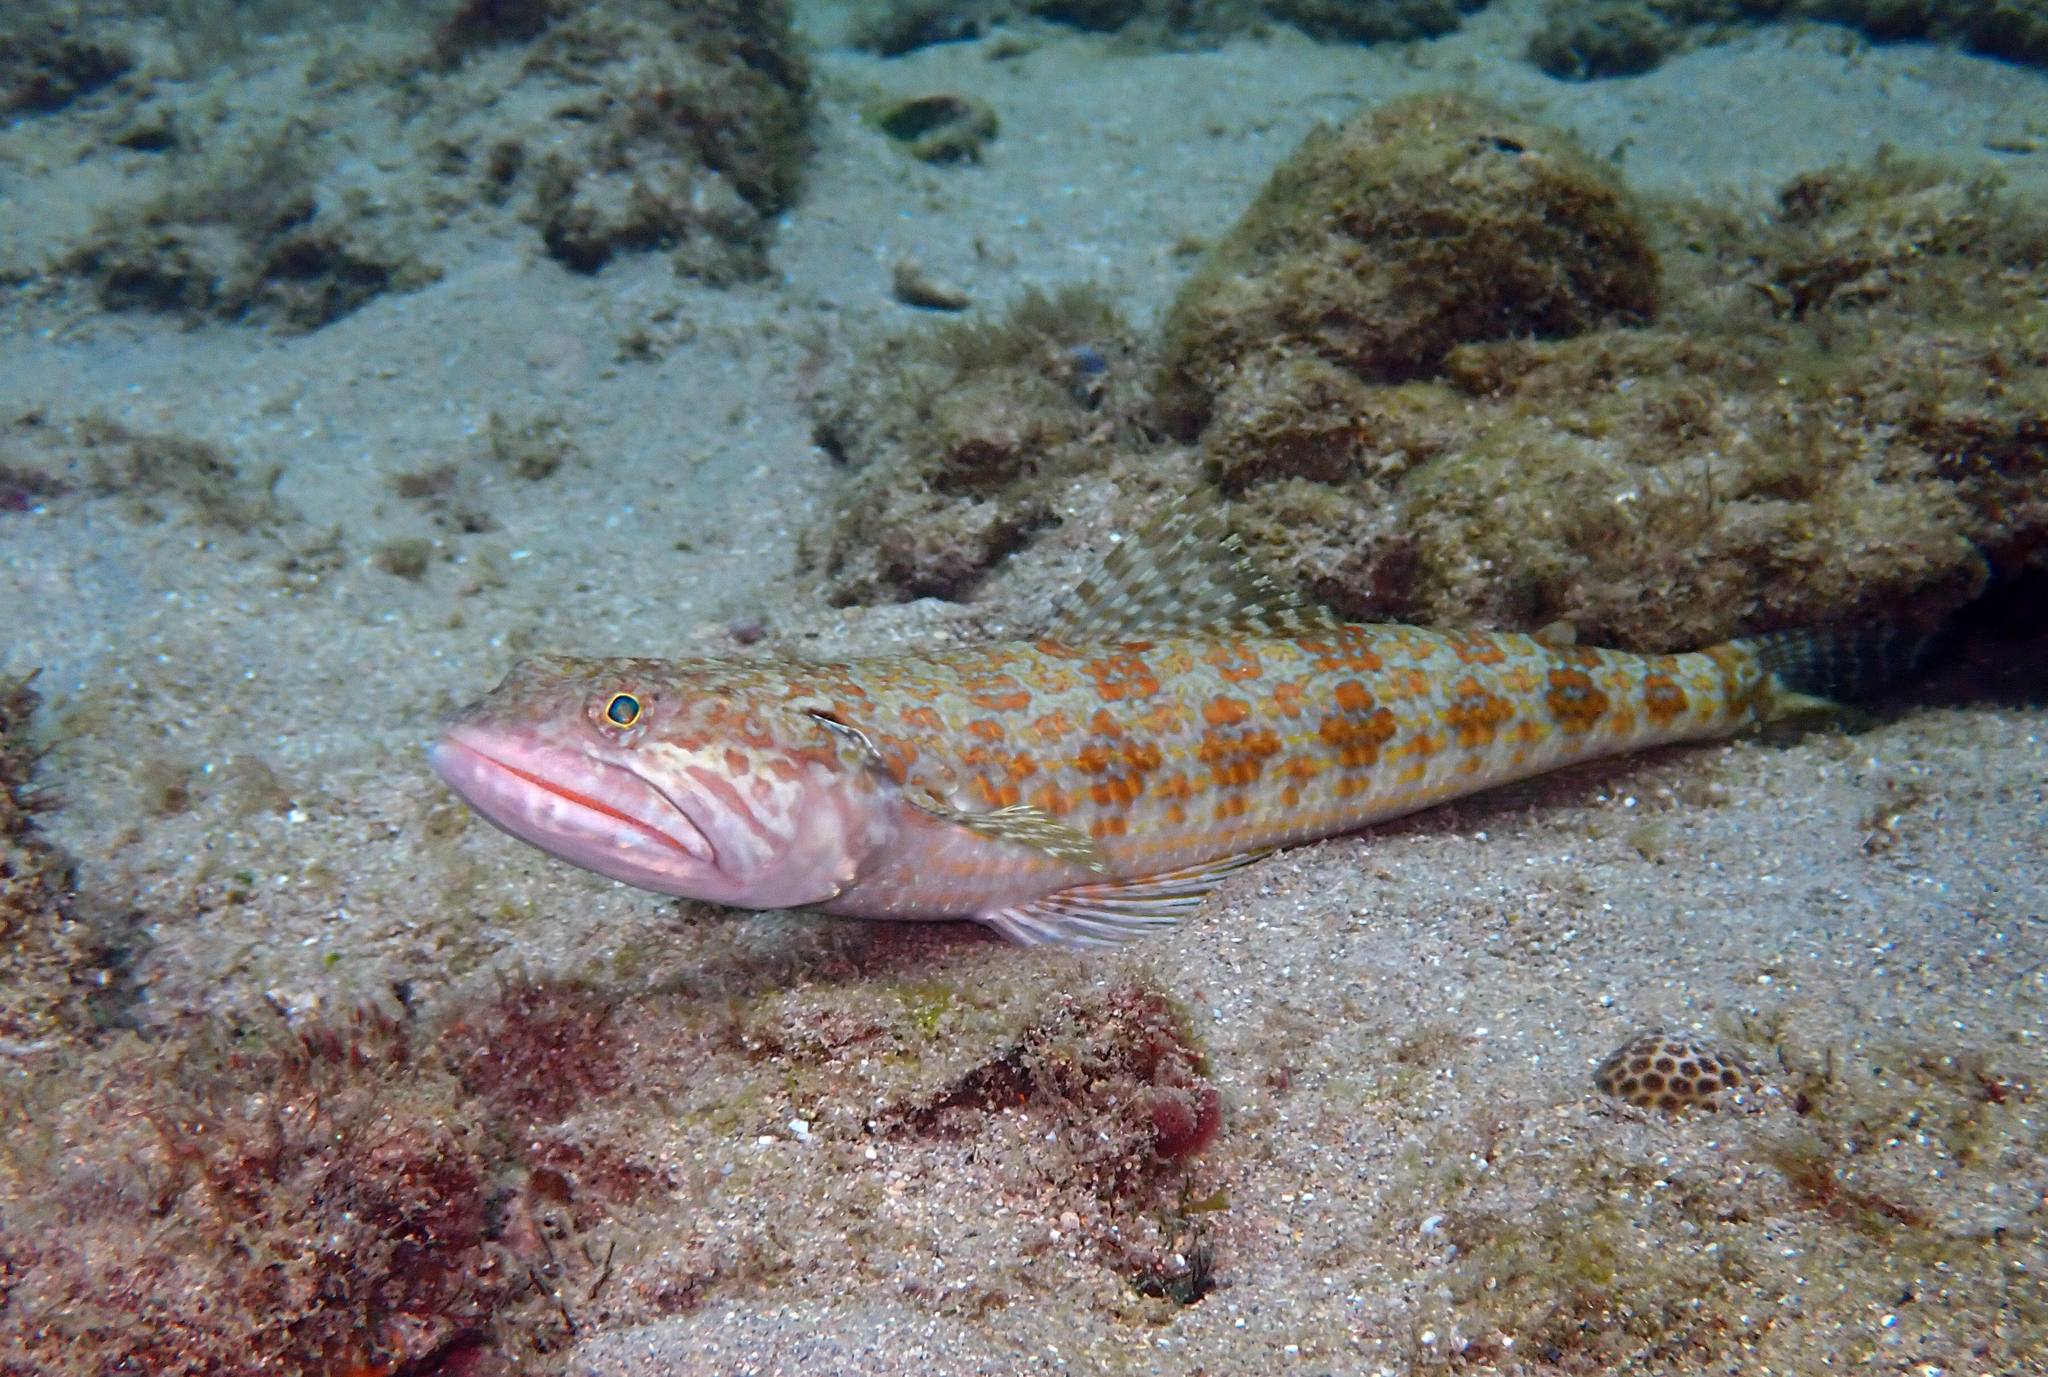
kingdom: Animalia
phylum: Chordata
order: Aulopiformes
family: Synodontidae
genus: Synodus
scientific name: Synodus intermedius
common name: Sand diver
